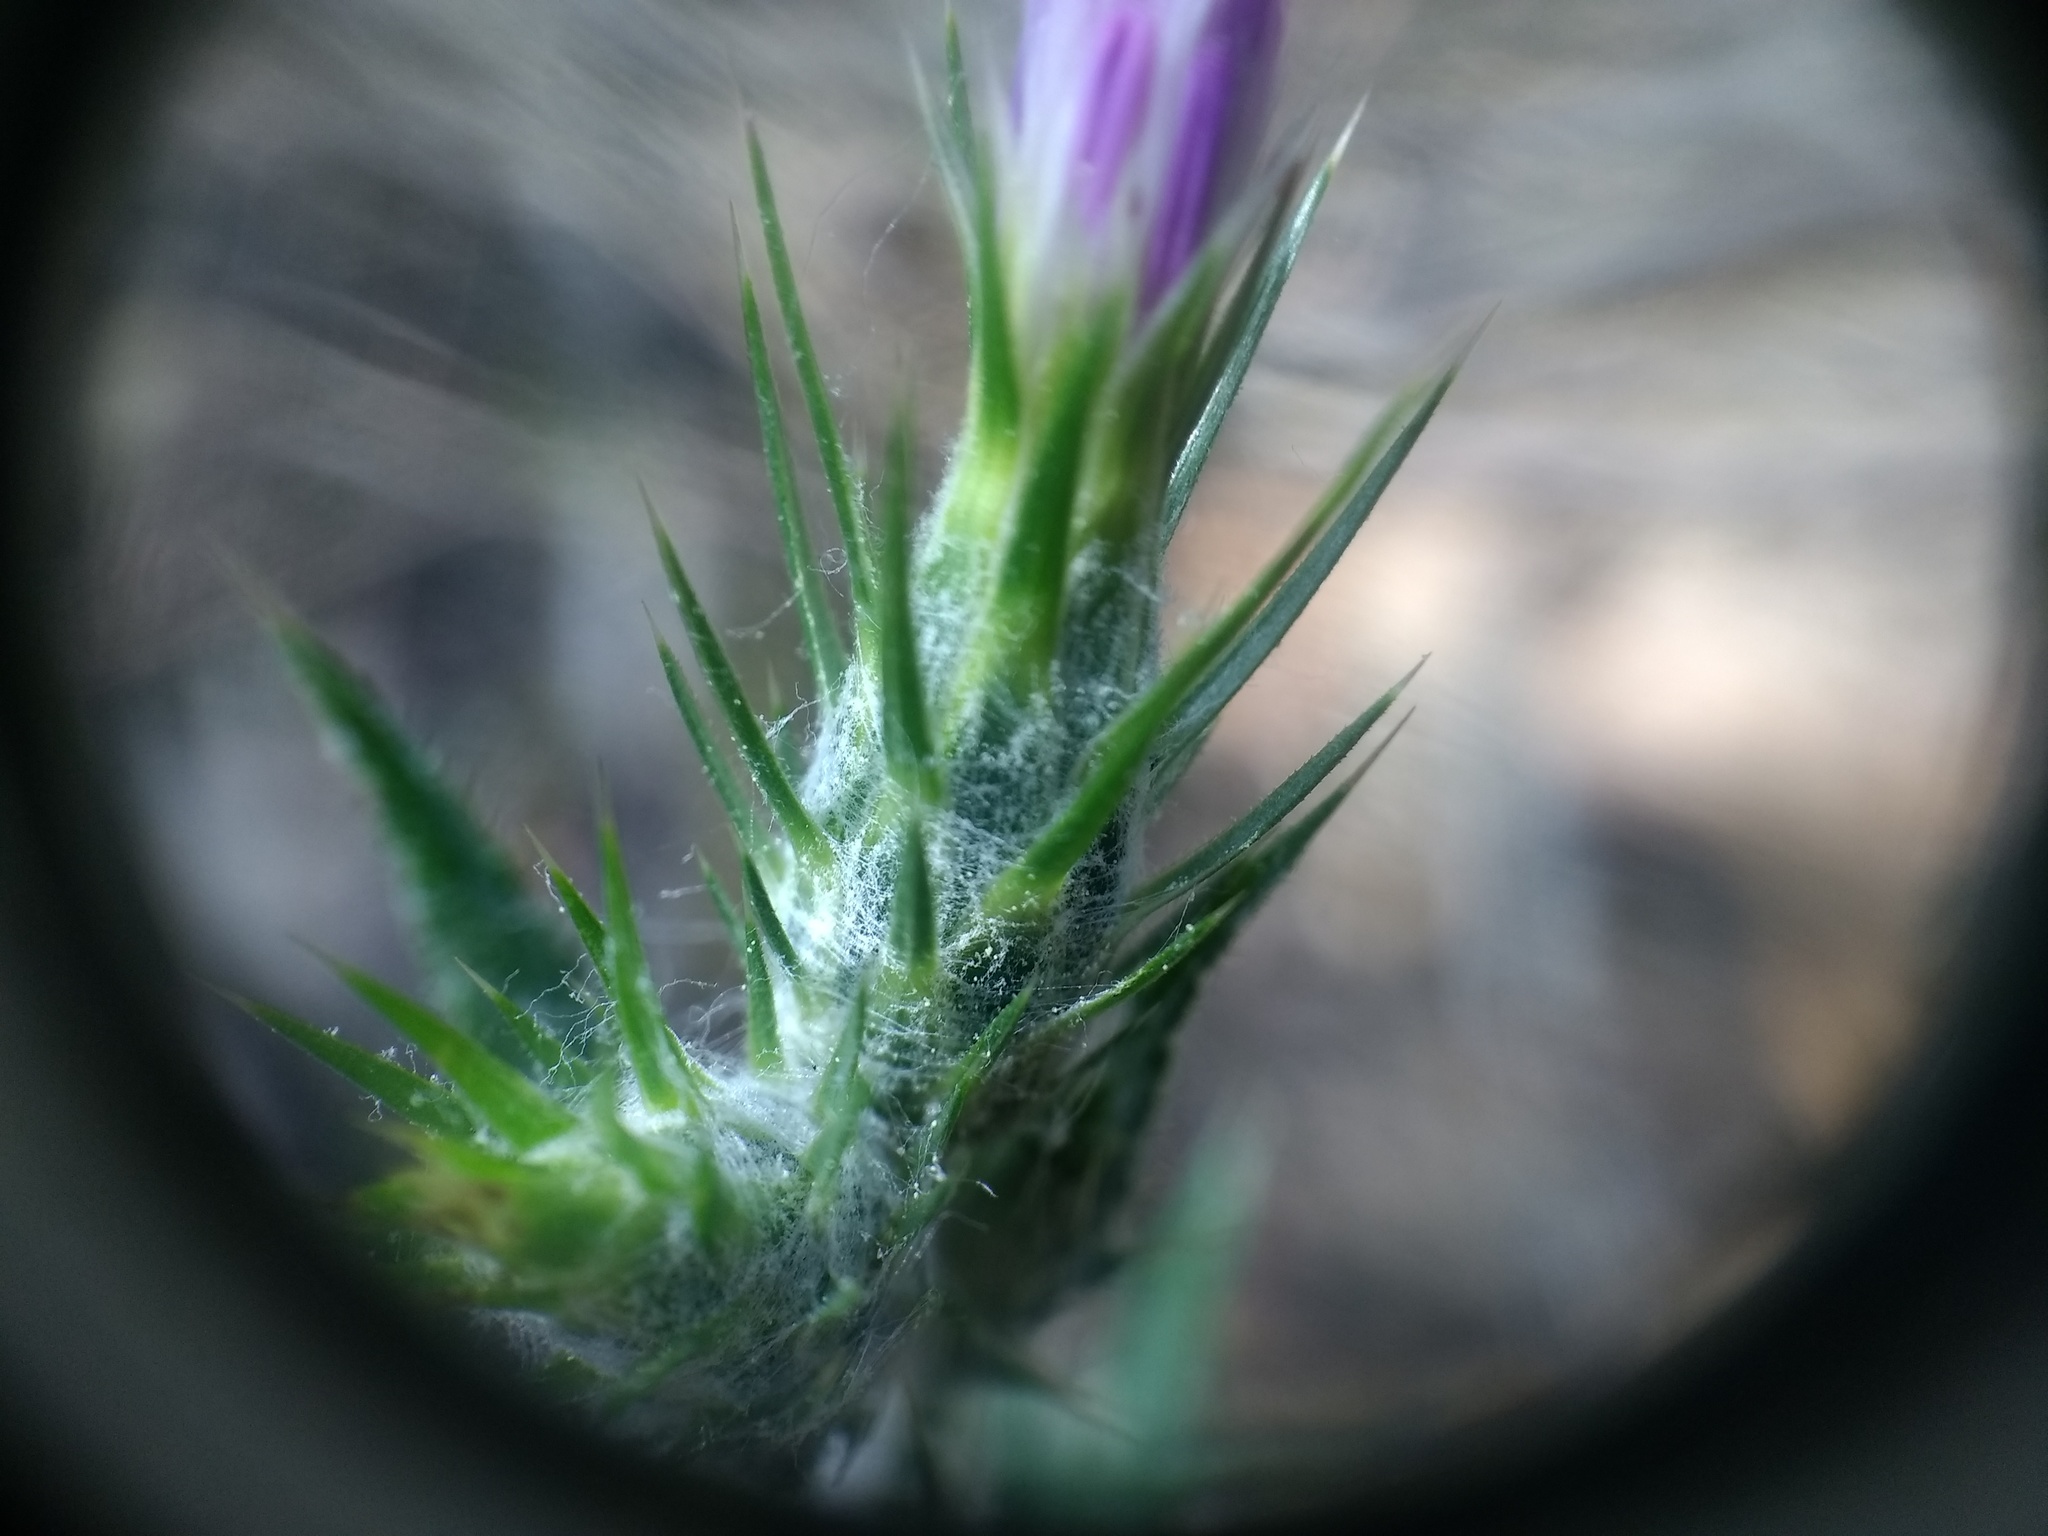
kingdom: Plantae
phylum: Tracheophyta
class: Magnoliopsida
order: Asterales
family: Asteraceae
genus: Carduus
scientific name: Carduus pycnocephalus
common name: Plymouth thistle
